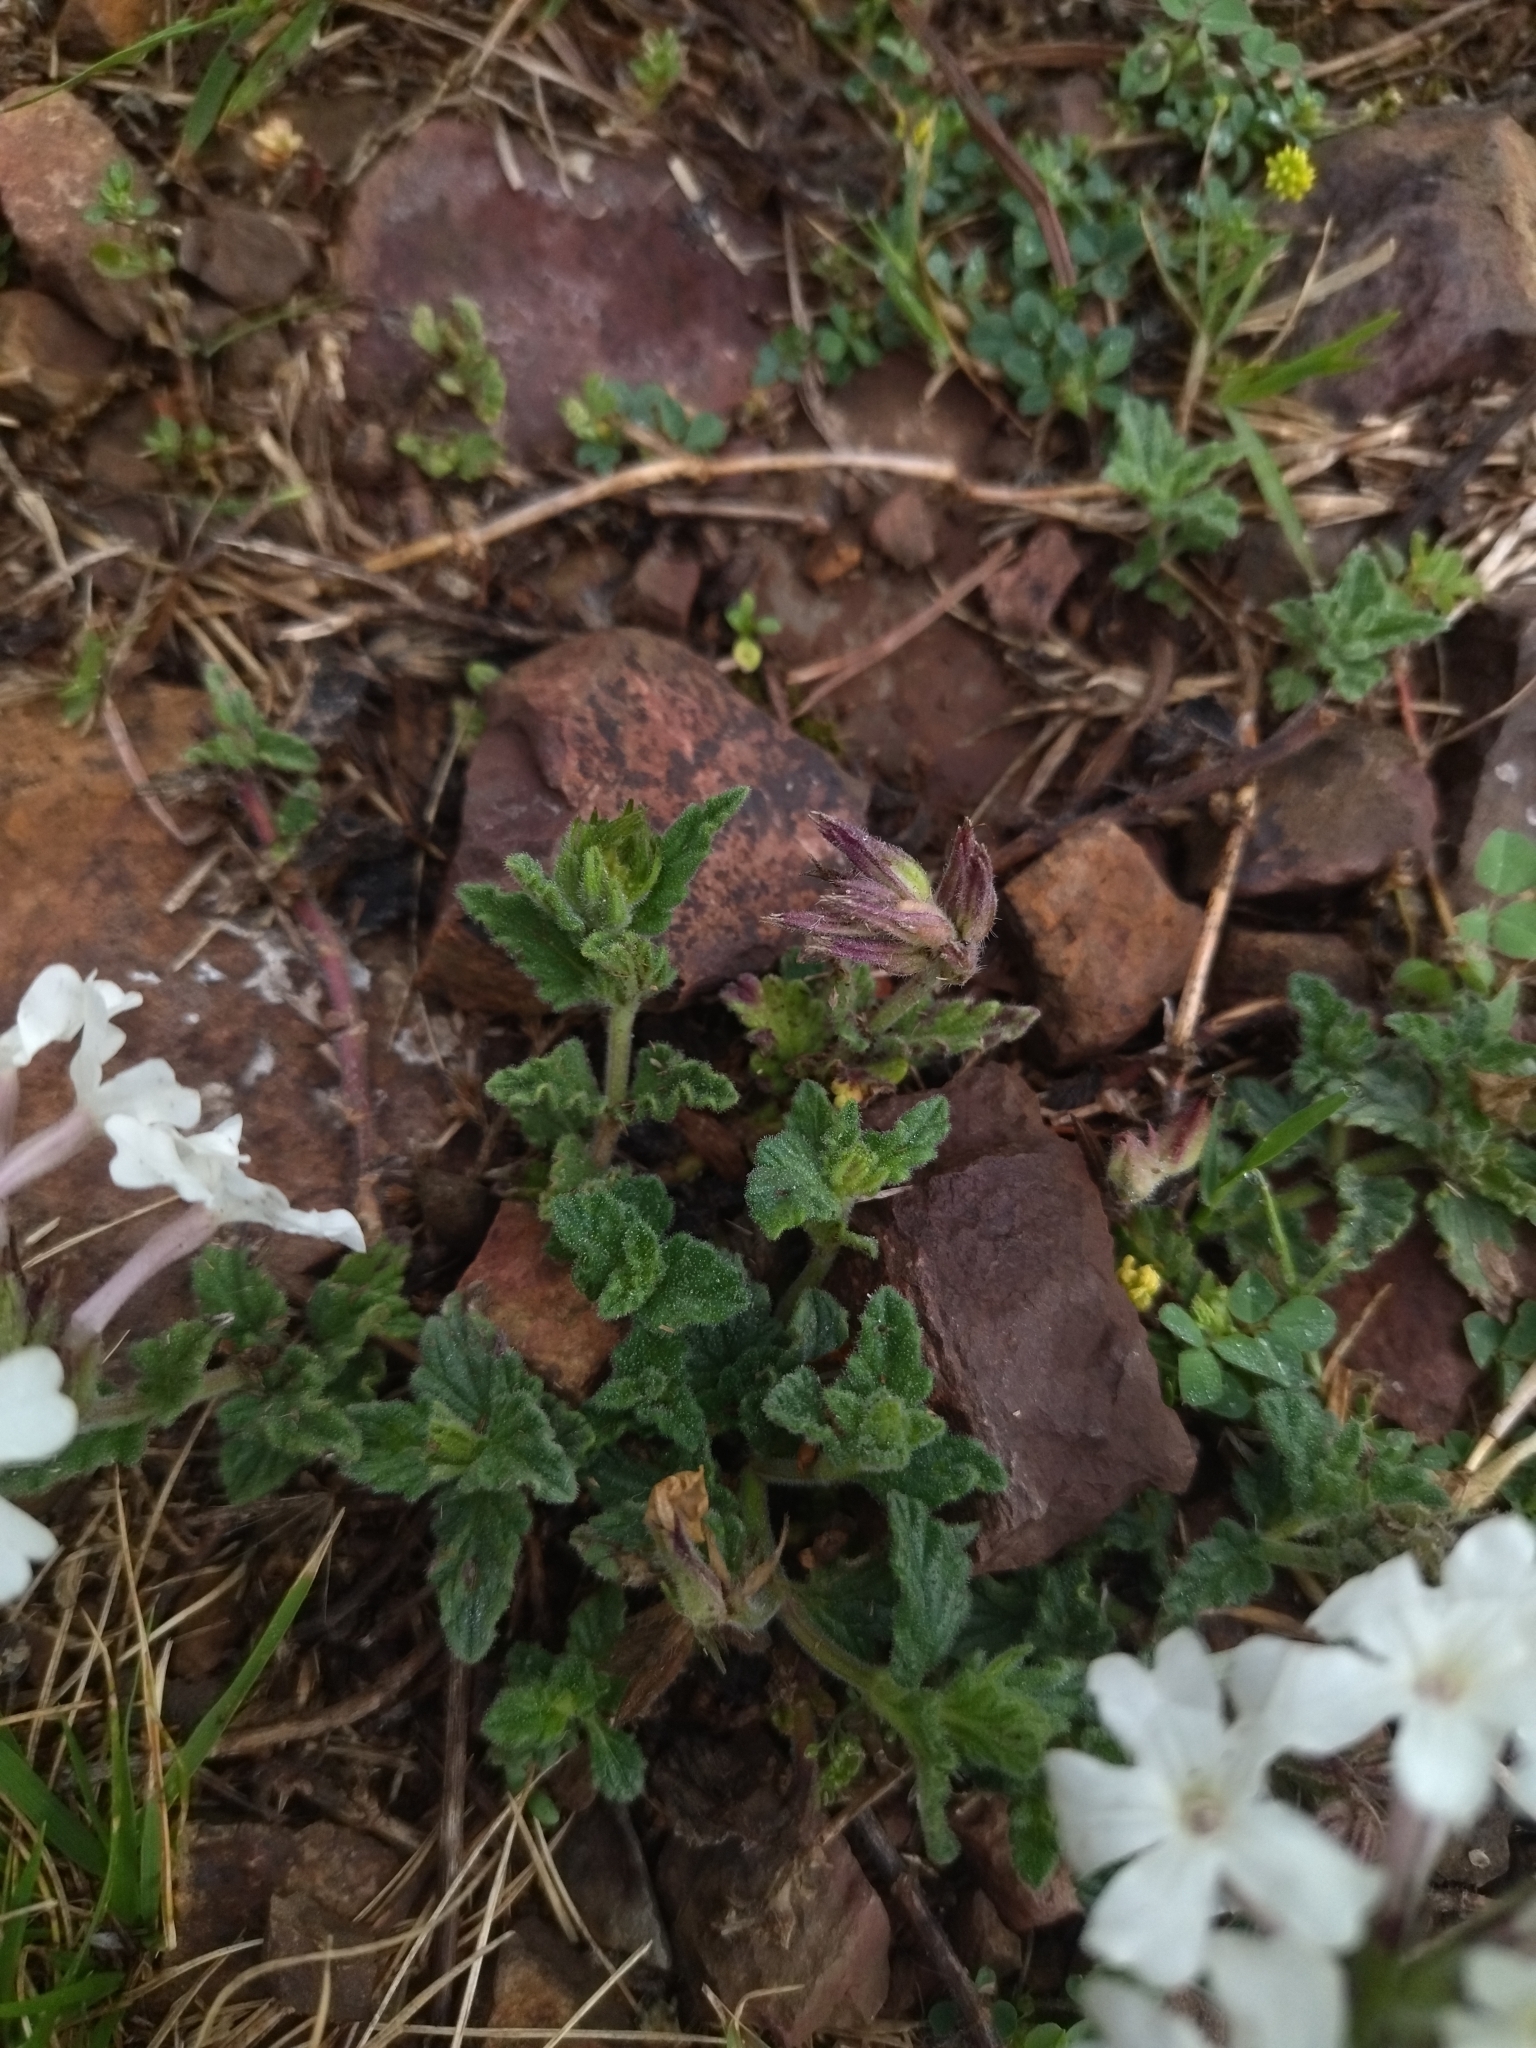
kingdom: Plantae
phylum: Tracheophyta
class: Magnoliopsida
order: Lamiales
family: Verbenaceae
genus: Verbena
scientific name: Verbena platensis
